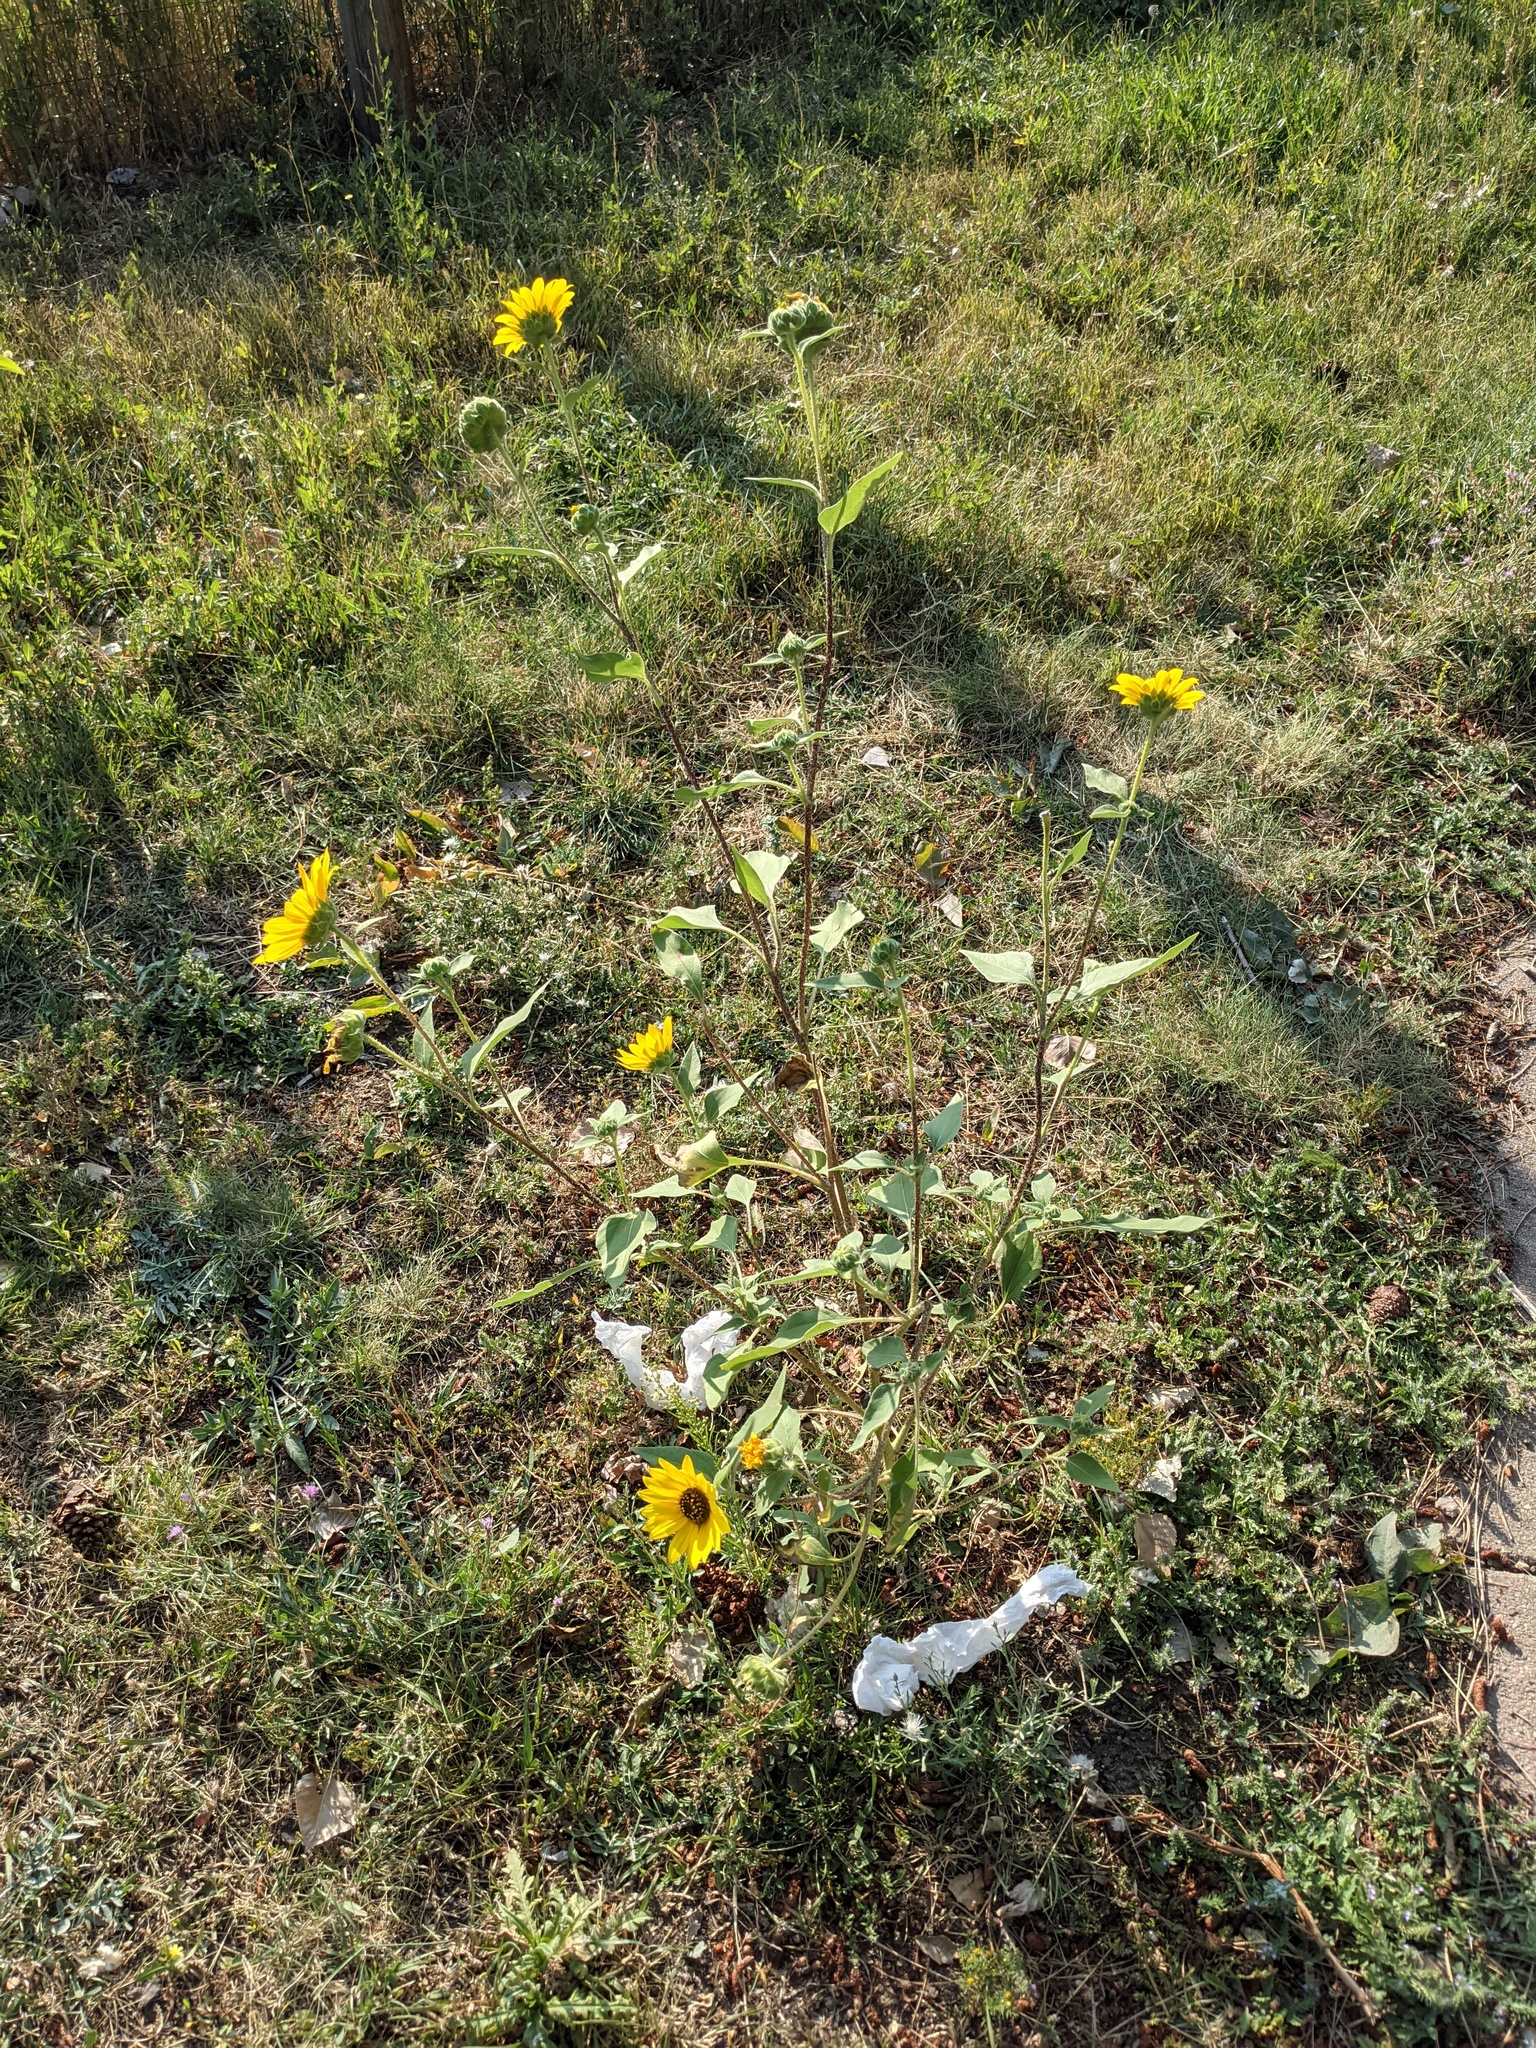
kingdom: Plantae
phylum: Tracheophyta
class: Magnoliopsida
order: Asterales
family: Asteraceae
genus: Helianthus
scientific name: Helianthus annuus
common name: Sunflower
